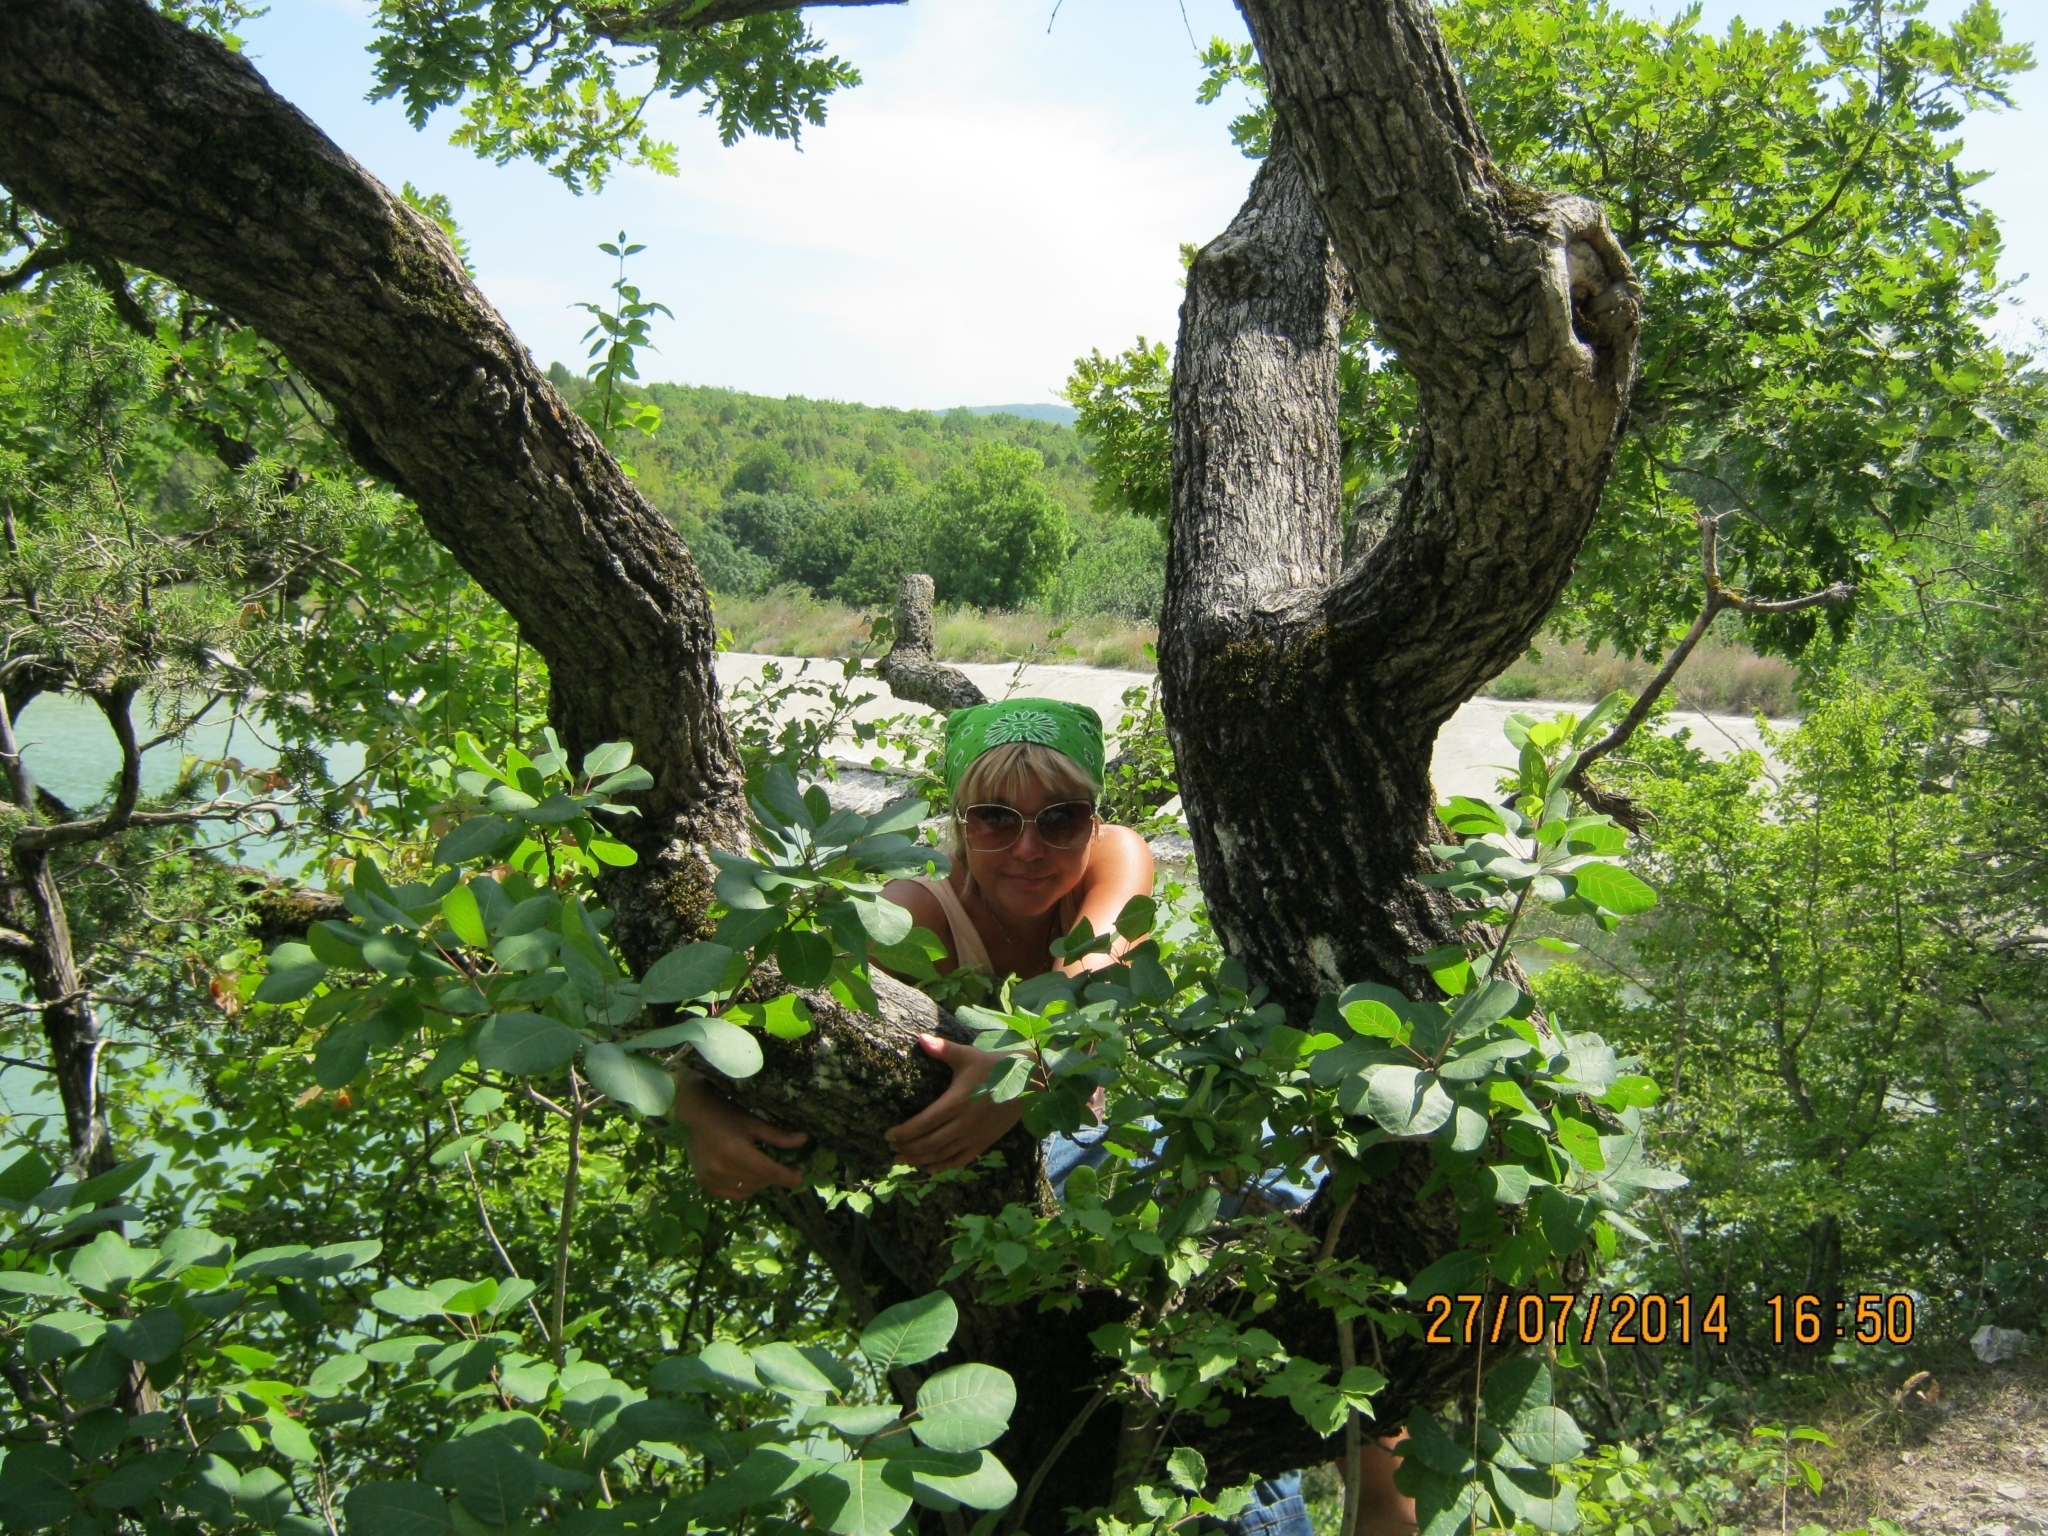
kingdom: Plantae
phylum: Tracheophyta
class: Magnoliopsida
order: Sapindales
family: Anacardiaceae
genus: Cotinus
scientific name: Cotinus coggygria
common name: Smoke-tree
